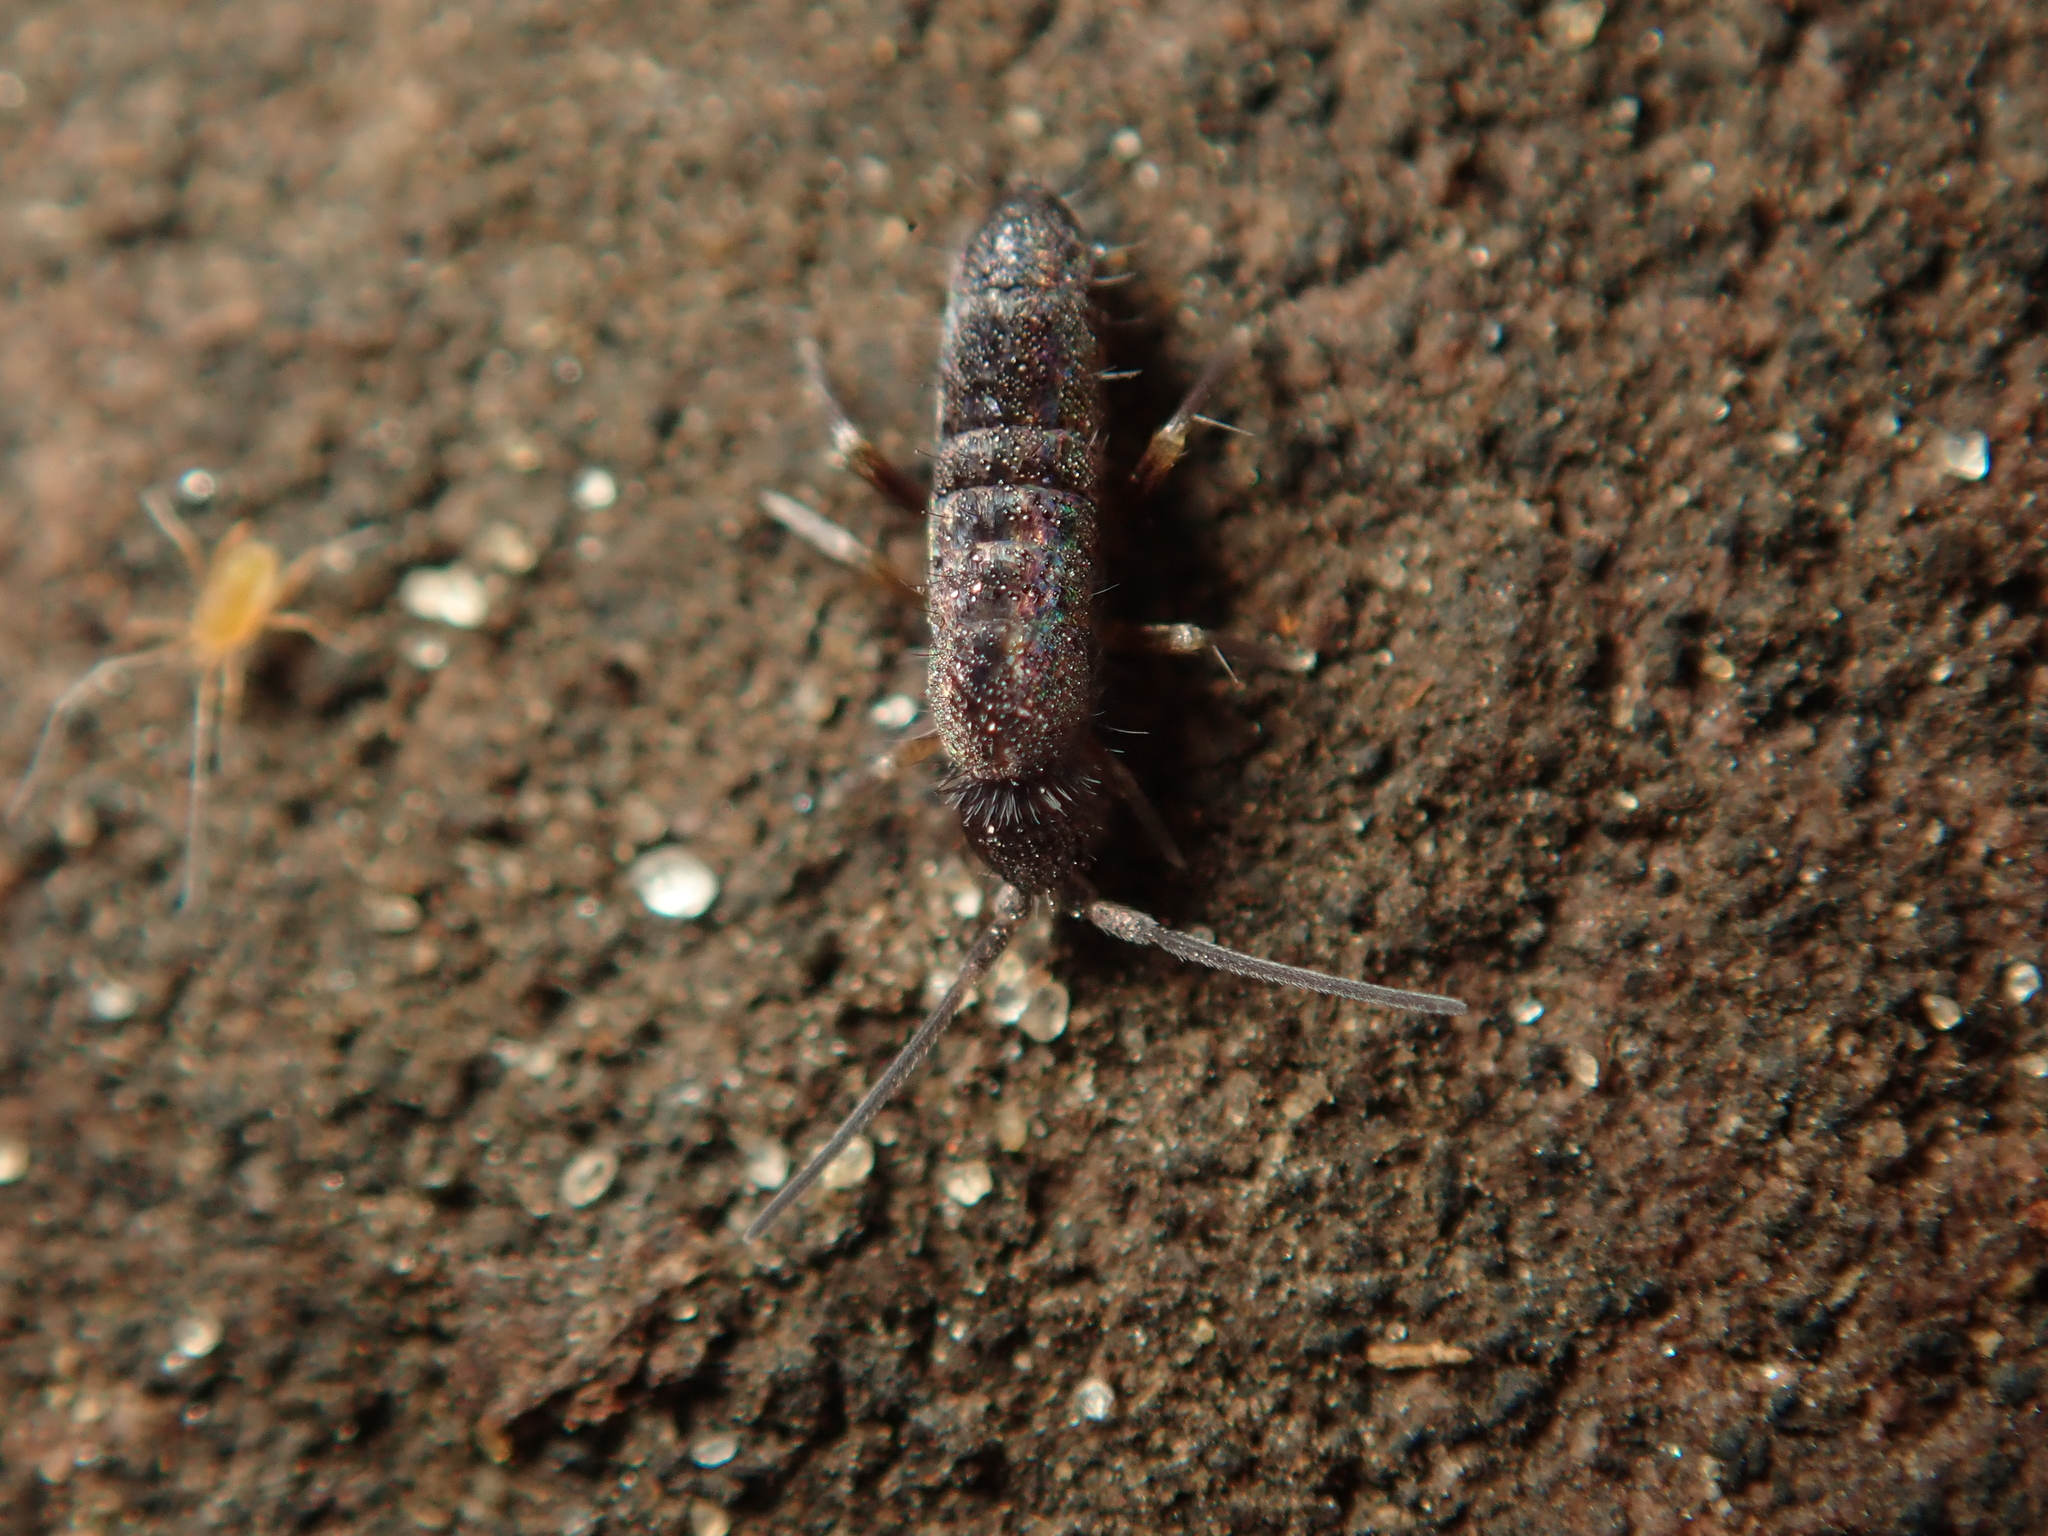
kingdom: Animalia
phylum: Arthropoda
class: Collembola
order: Entomobryomorpha
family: Tomoceridae
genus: Tomocerus
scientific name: Tomocerus vulgaris
